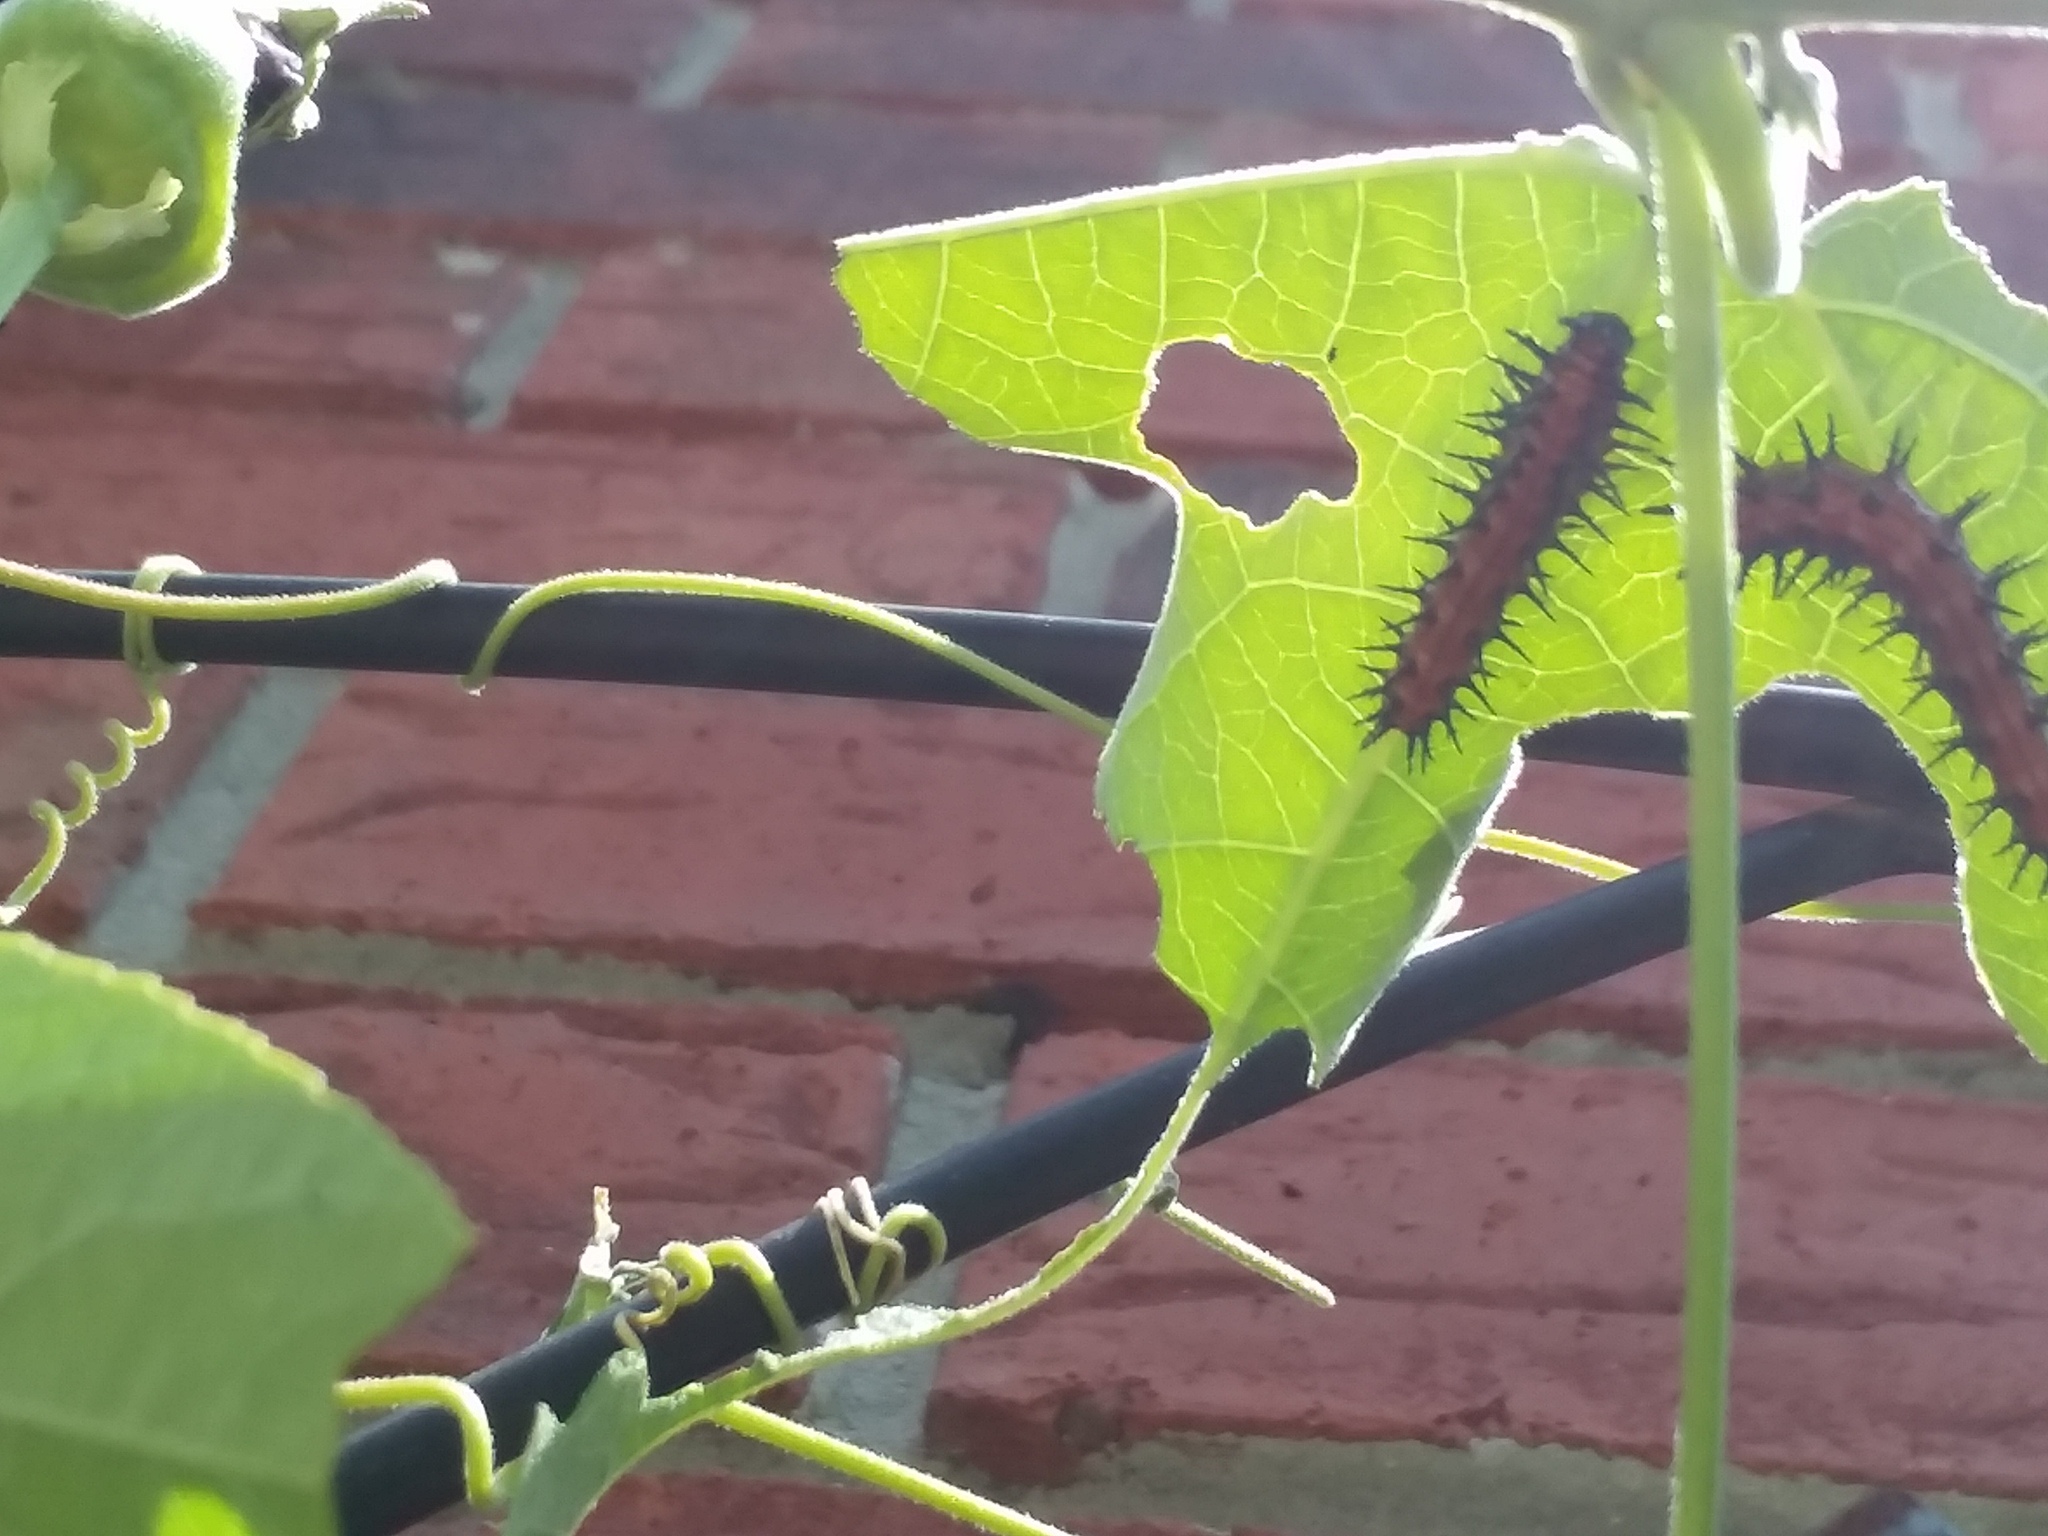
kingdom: Animalia
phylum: Arthropoda
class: Insecta
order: Lepidoptera
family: Nymphalidae
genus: Dione
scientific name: Dione vanillae
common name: Gulf fritillary
